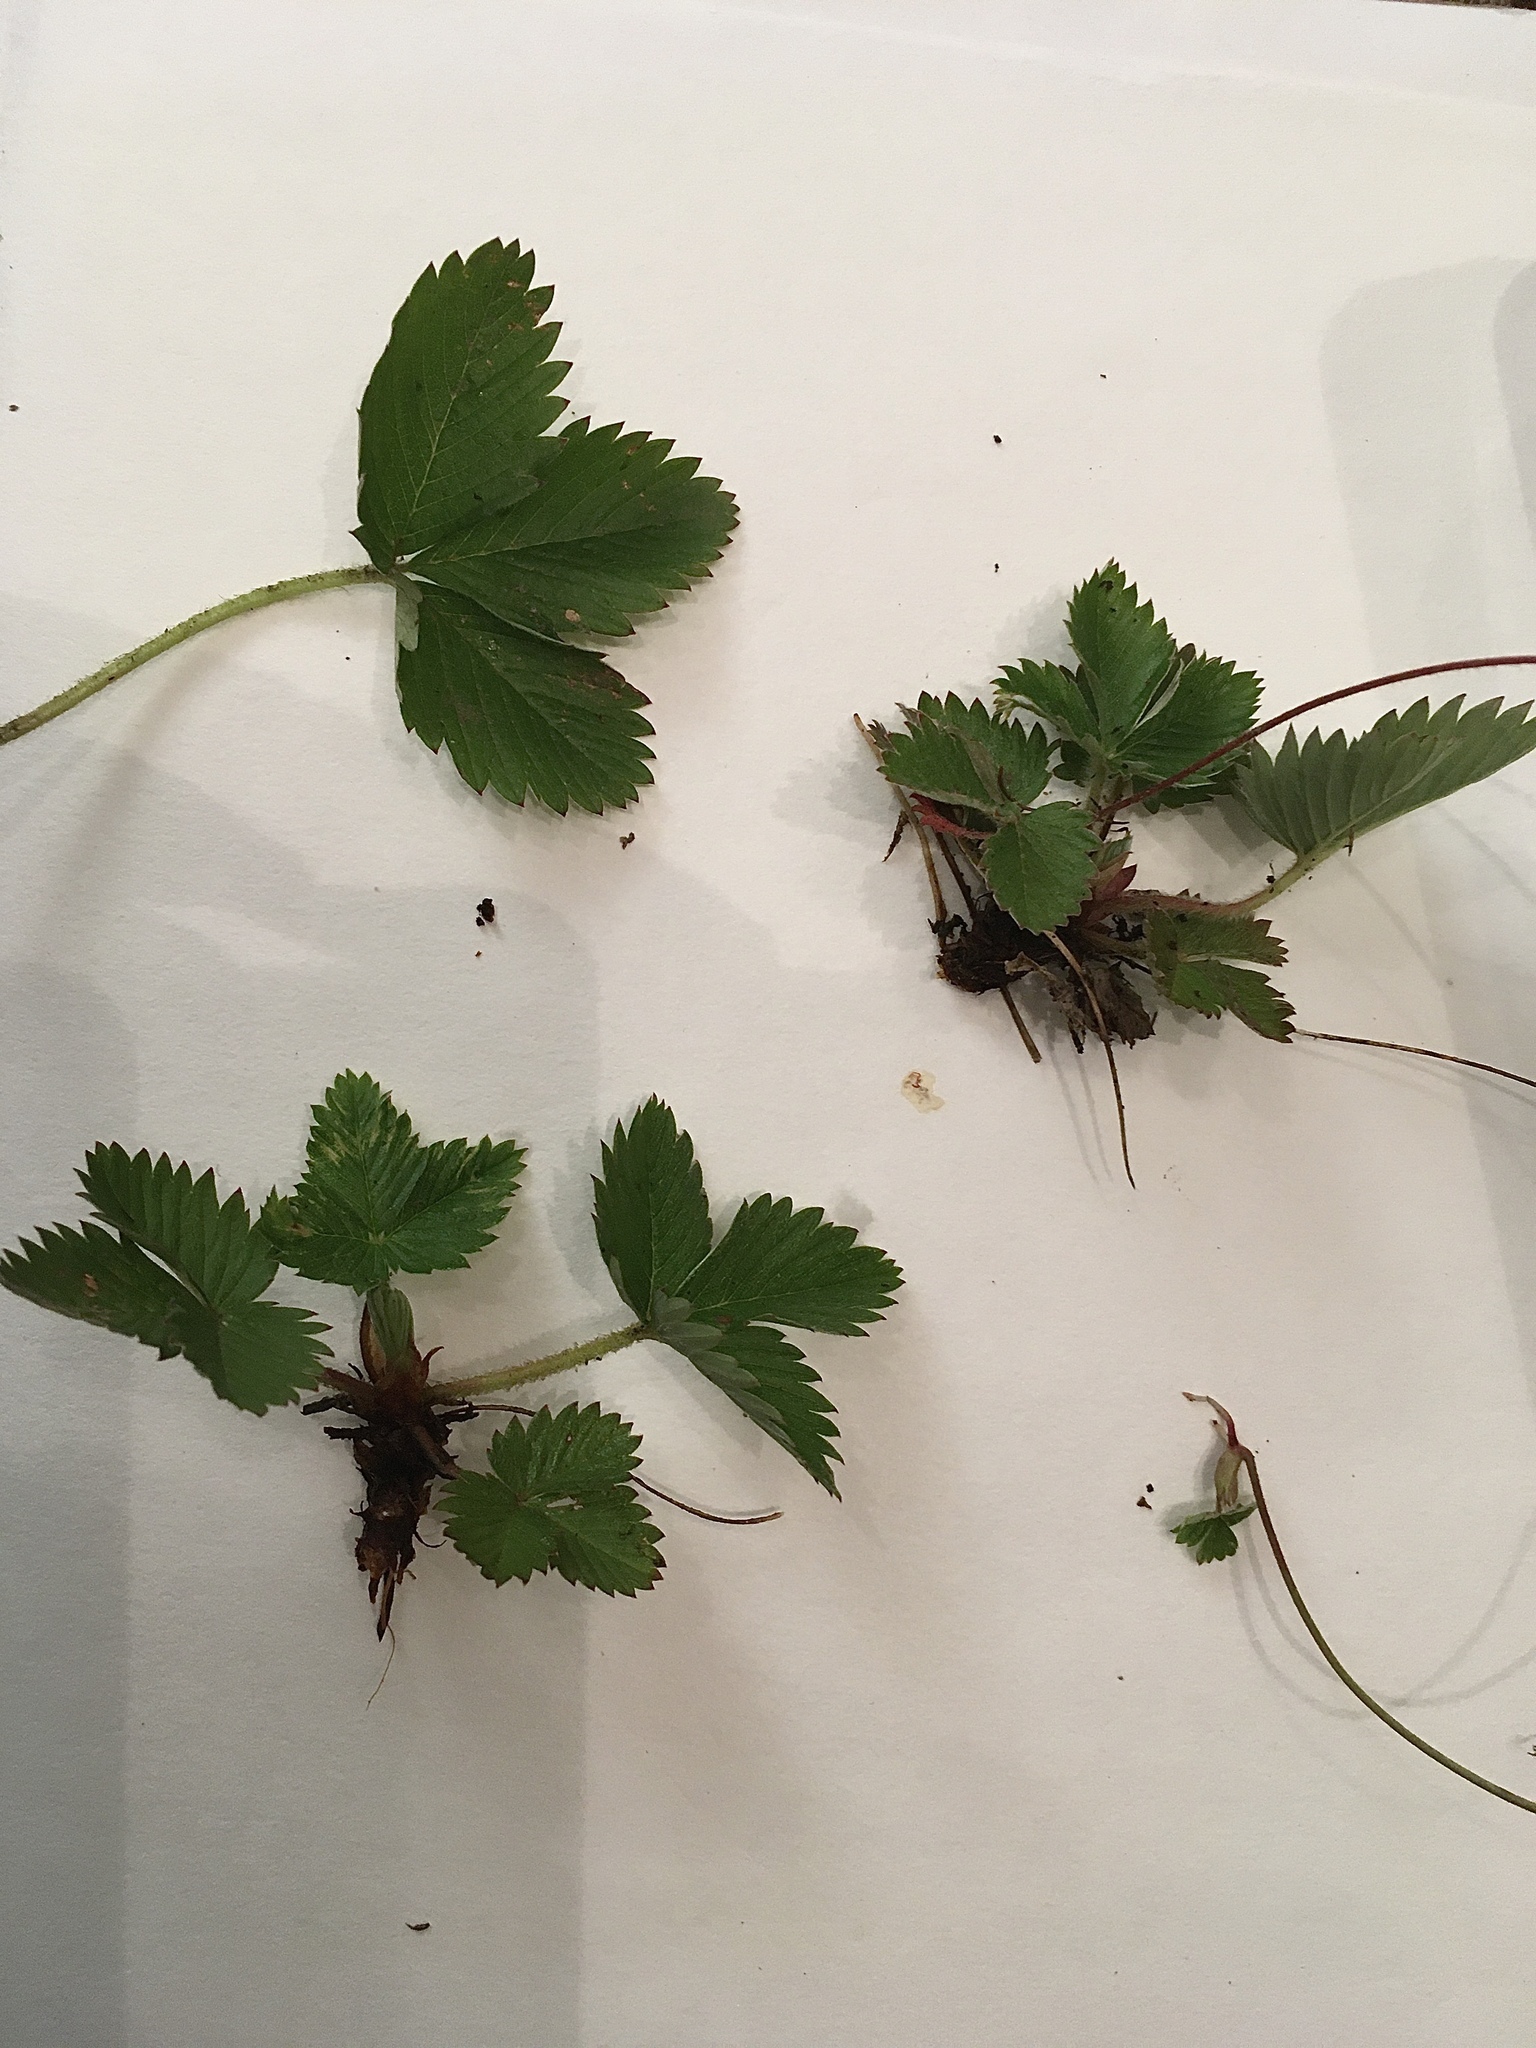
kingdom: Plantae
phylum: Tracheophyta
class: Magnoliopsida
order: Rosales
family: Rosaceae
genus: Fragaria
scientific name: Fragaria vesca
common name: Wild strawberry
